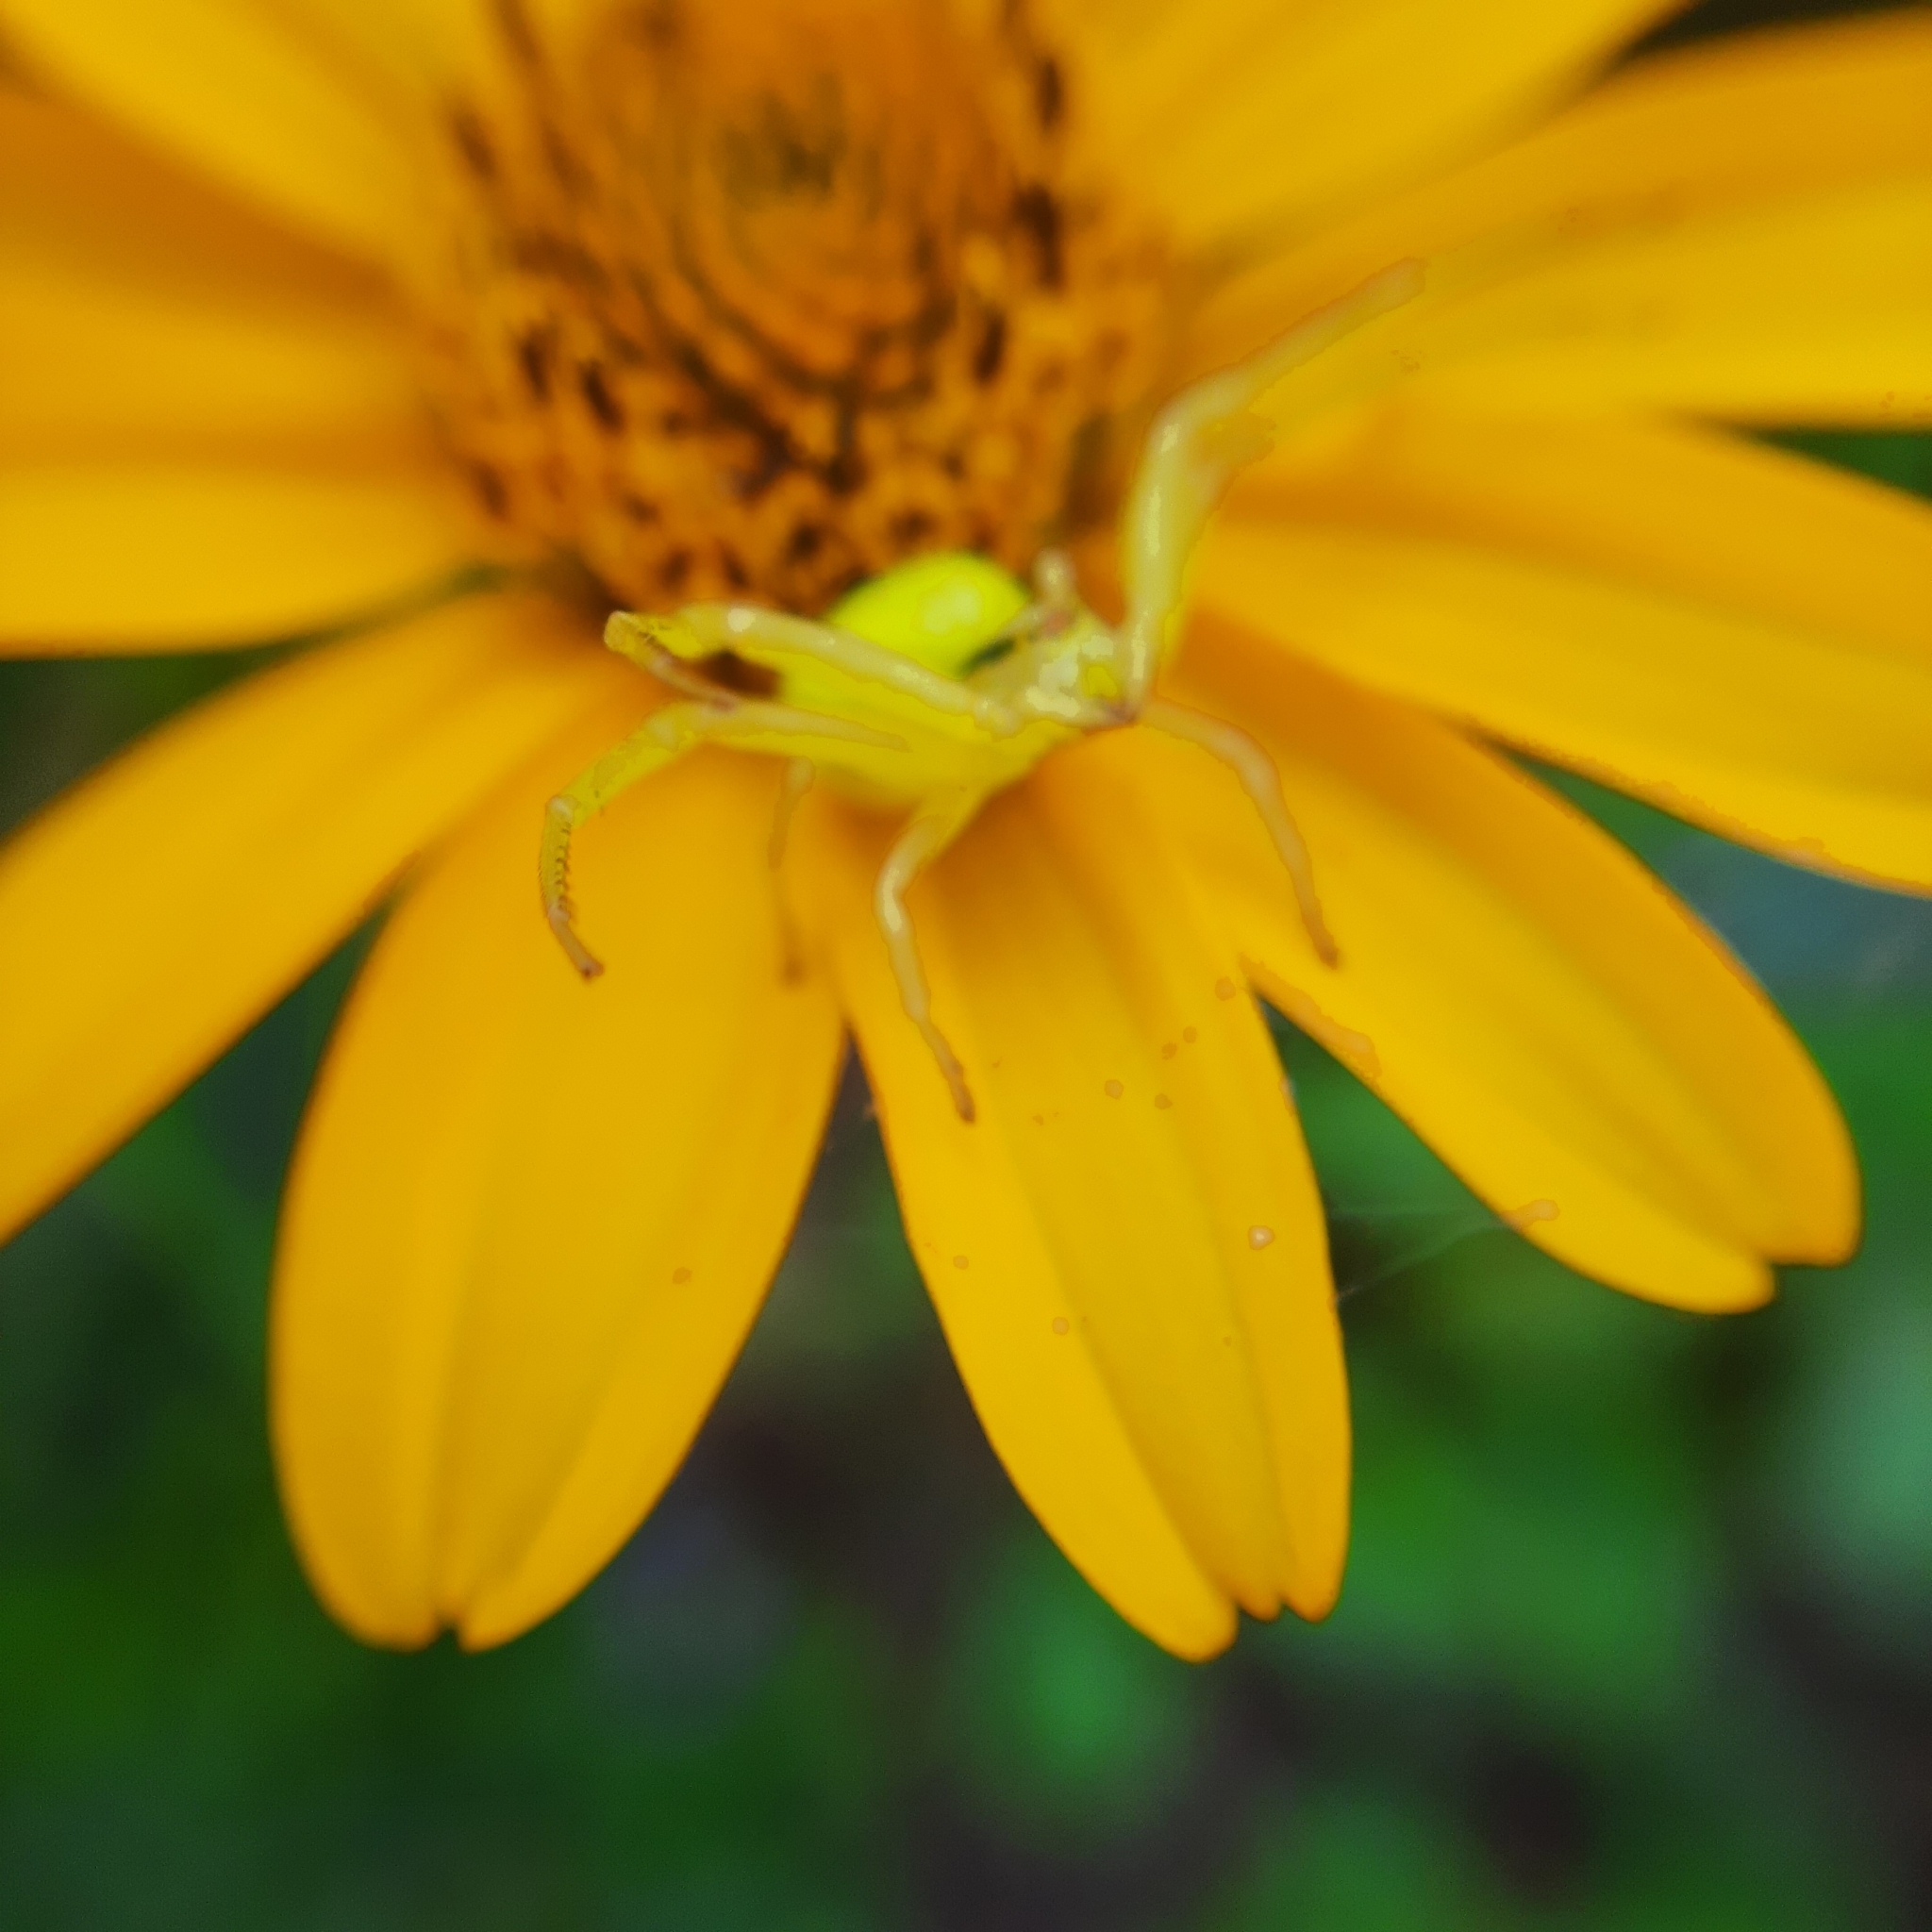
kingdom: Animalia
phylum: Arthropoda
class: Arachnida
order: Araneae
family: Thomisidae
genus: Misumena
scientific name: Misumena vatia
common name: Goldenrod crab spider
